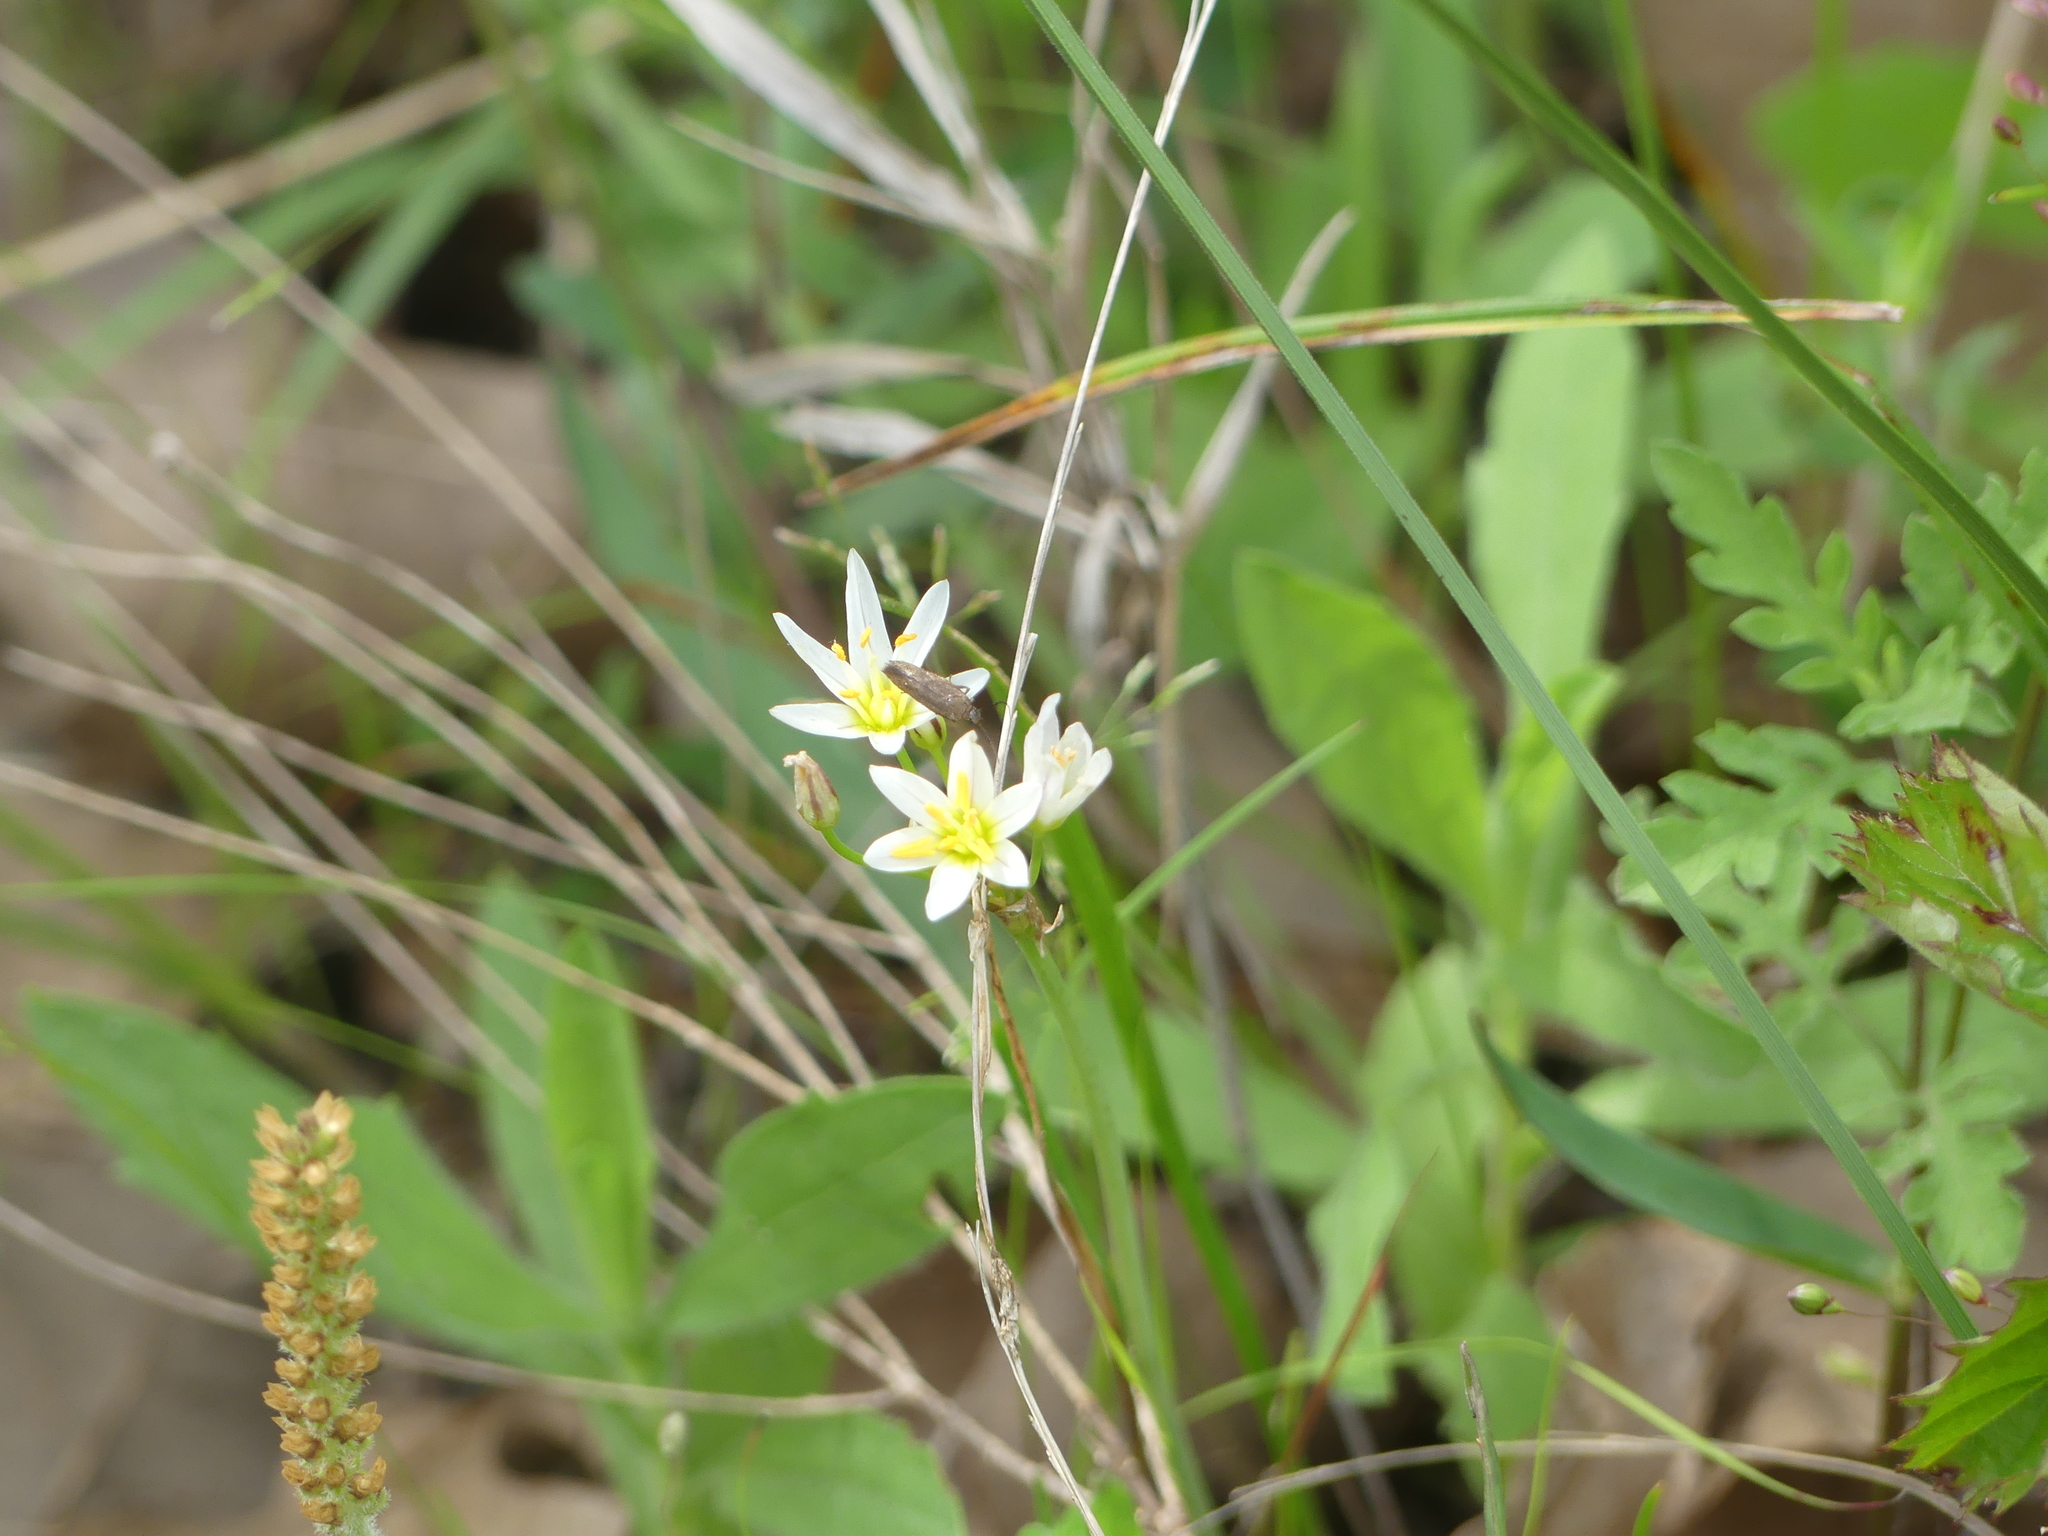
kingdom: Plantae
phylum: Tracheophyta
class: Liliopsida
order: Asparagales
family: Amaryllidaceae
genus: Nothoscordum
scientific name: Nothoscordum bivalve
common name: Crow-poison
